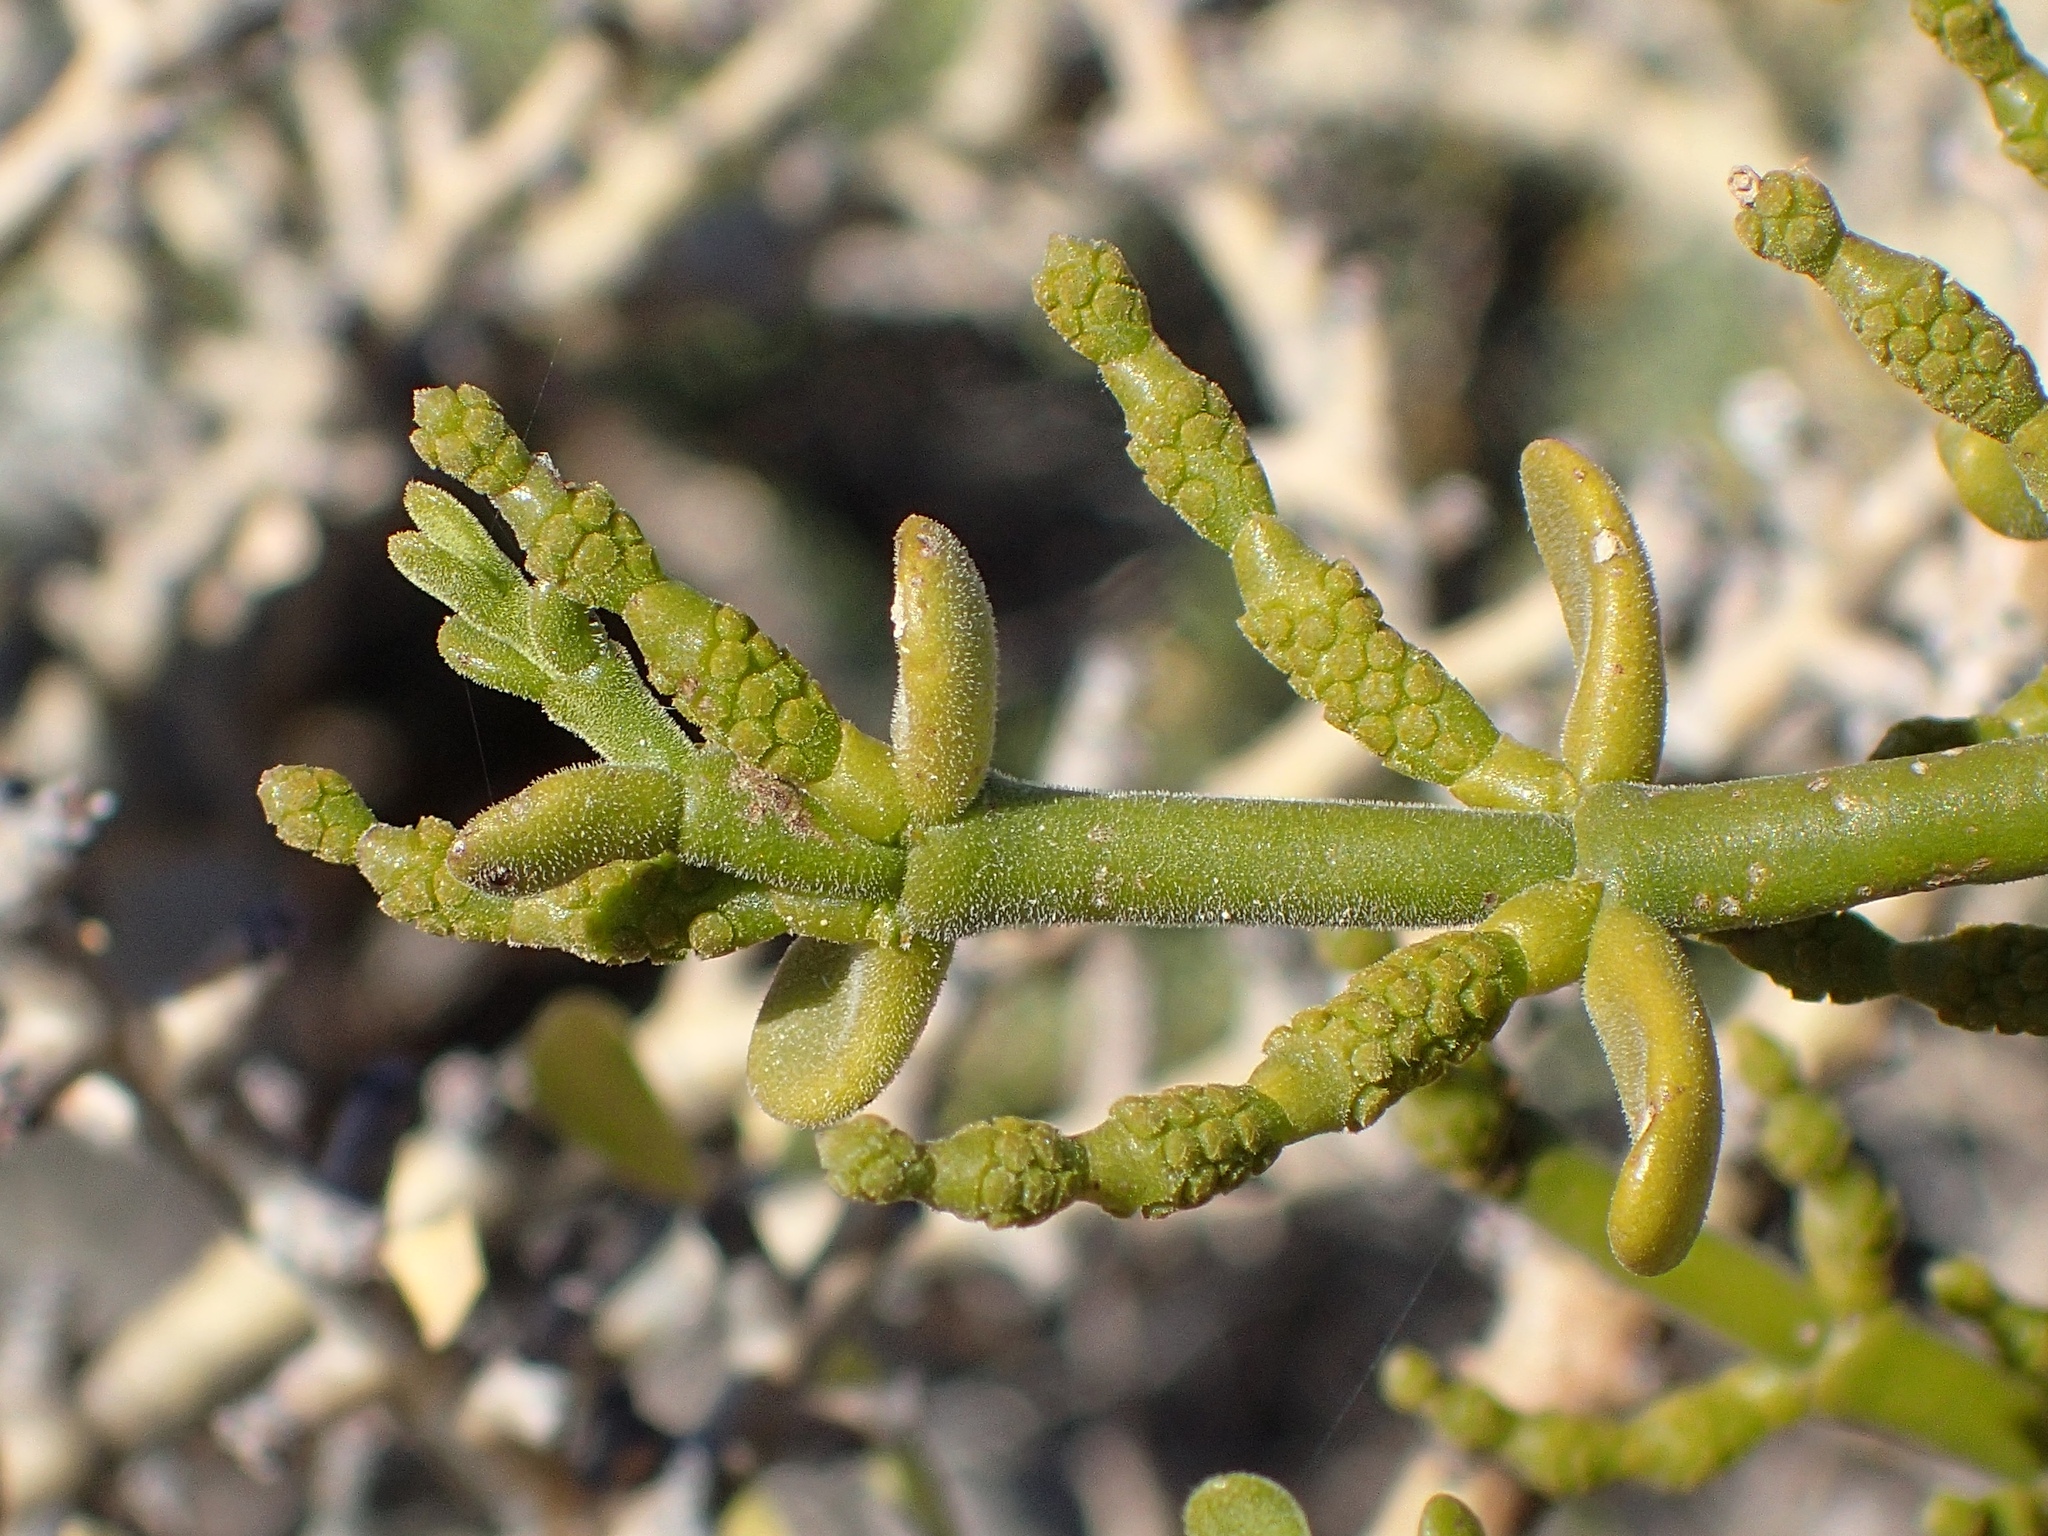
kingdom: Plantae
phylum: Tracheophyta
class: Magnoliopsida
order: Santalales
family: Viscaceae
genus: Phoradendron
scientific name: Phoradendron brachystachyum
